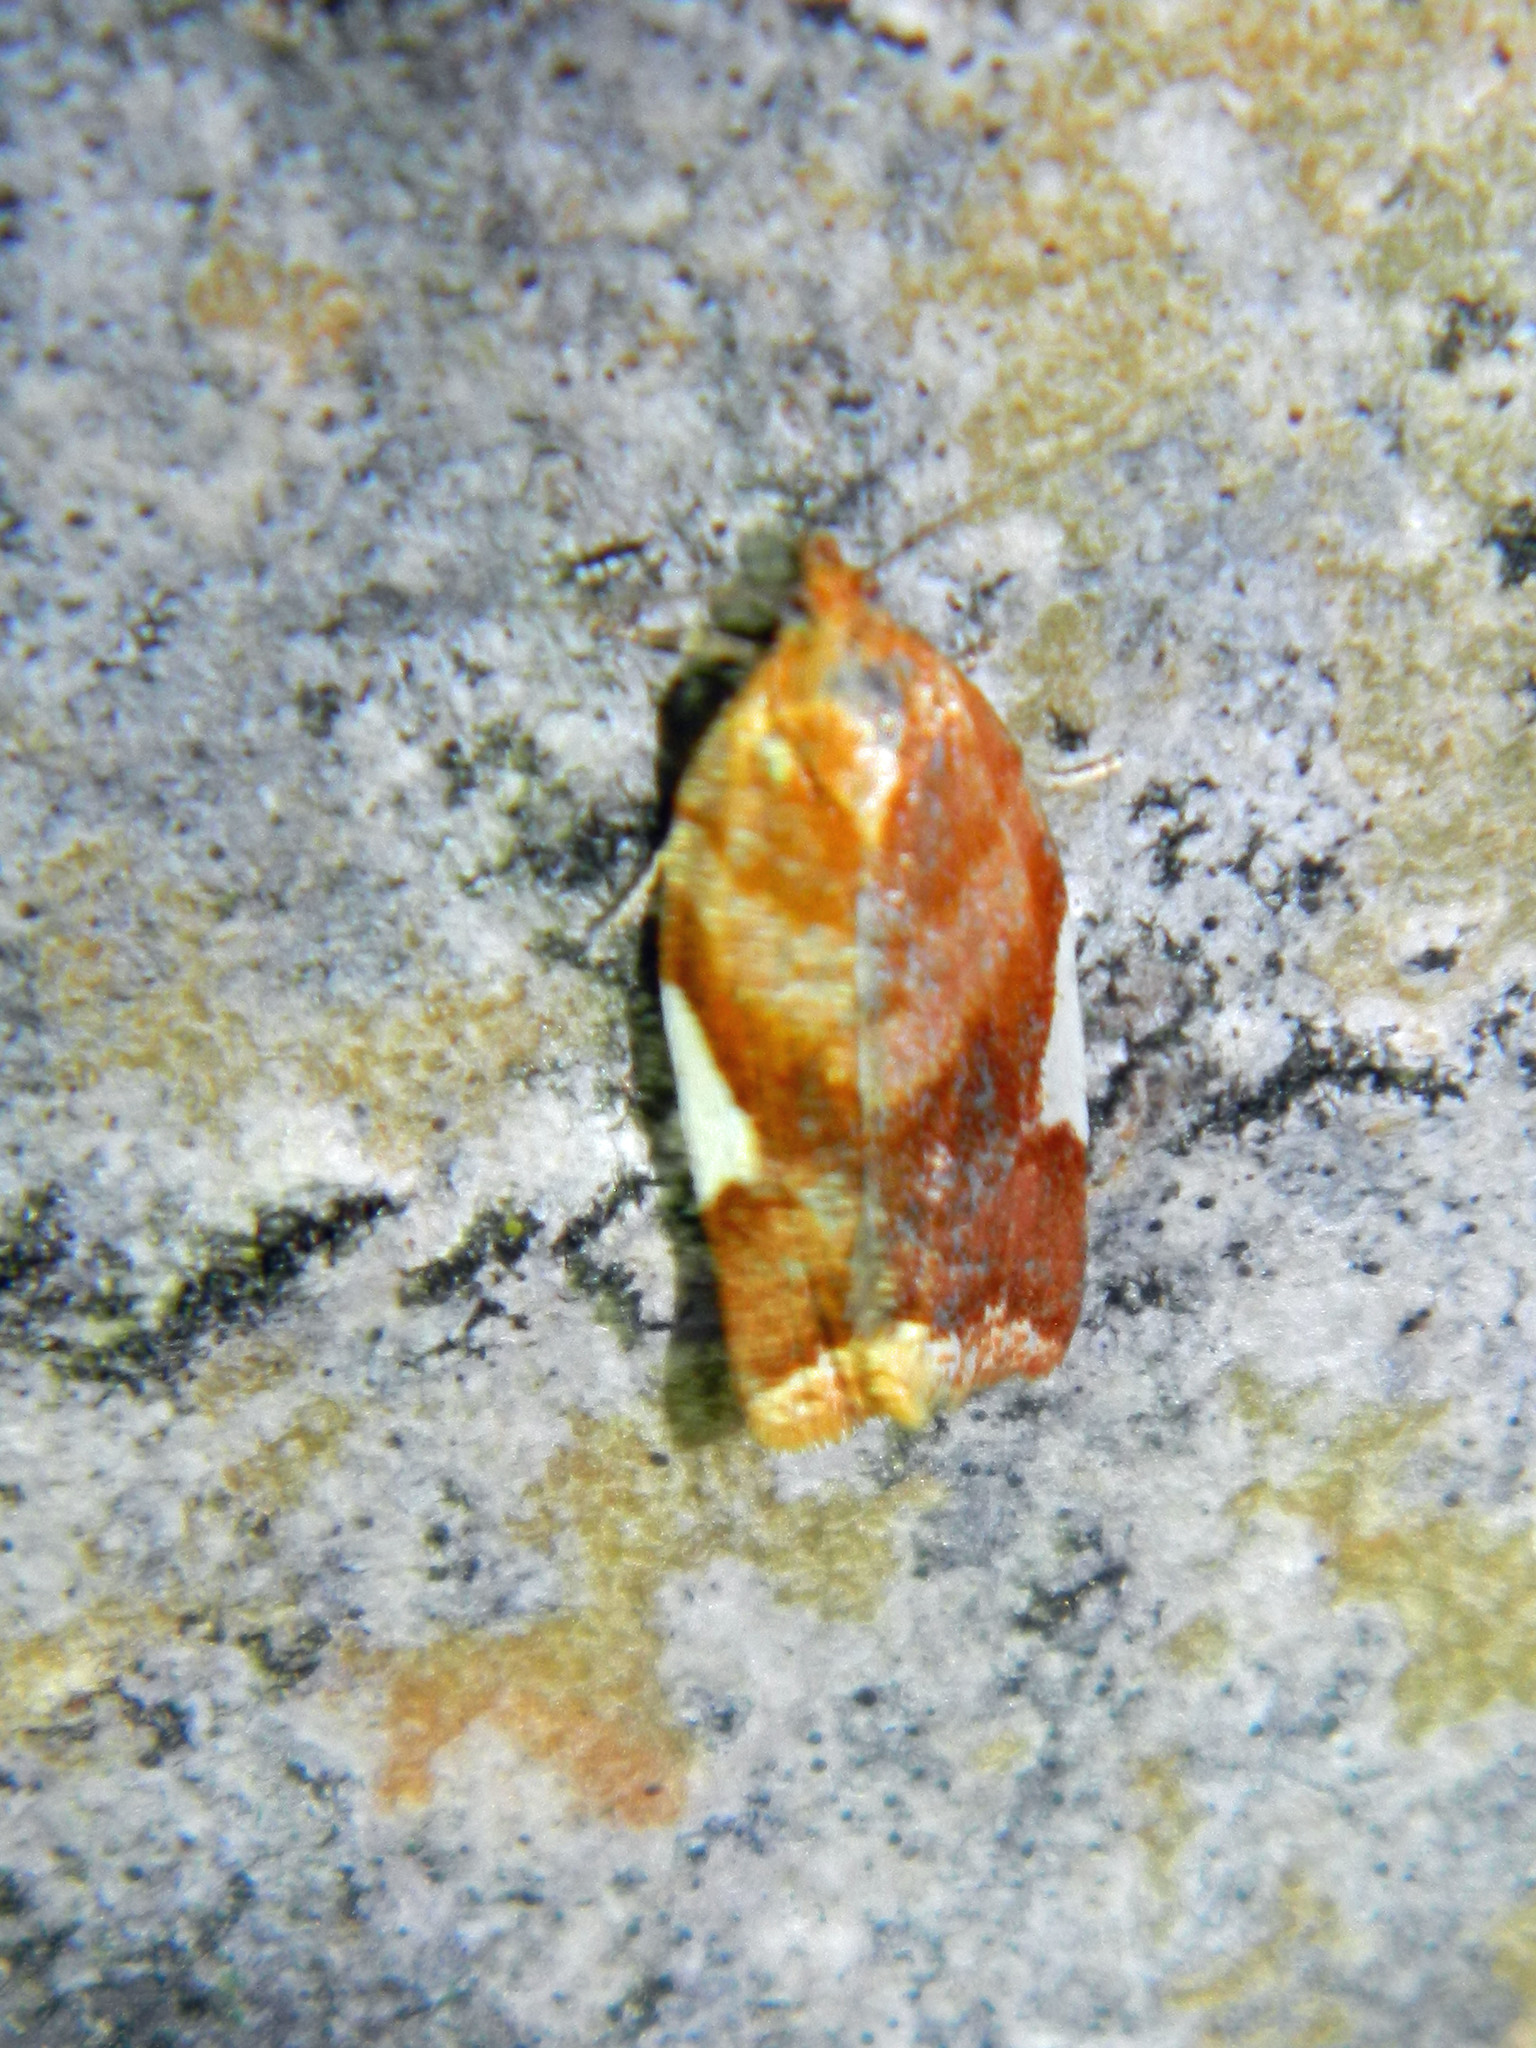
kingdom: Animalia
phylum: Arthropoda
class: Insecta
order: Lepidoptera
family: Tortricidae
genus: Clepsis
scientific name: Clepsis persicana
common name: White triangle tortrix
